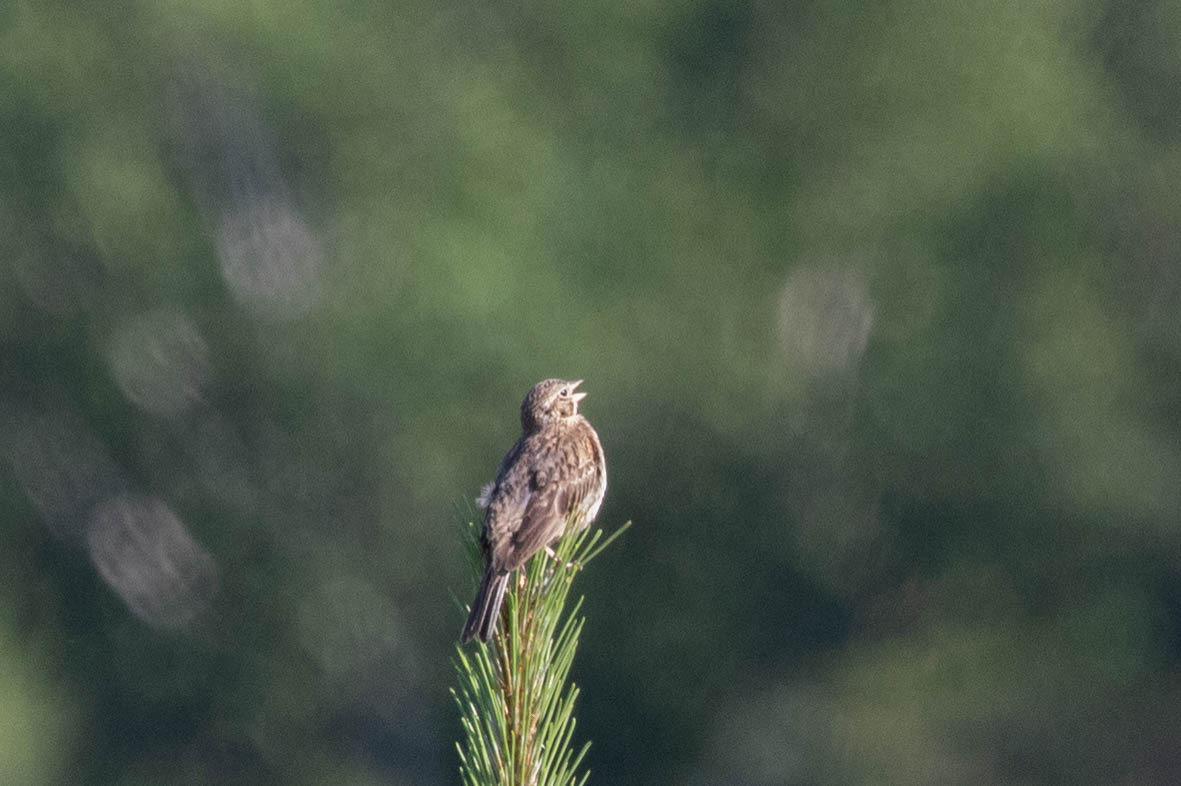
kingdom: Animalia
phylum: Chordata
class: Aves
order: Passeriformes
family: Passerellidae
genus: Pooecetes
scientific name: Pooecetes gramineus
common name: Vesper sparrow
